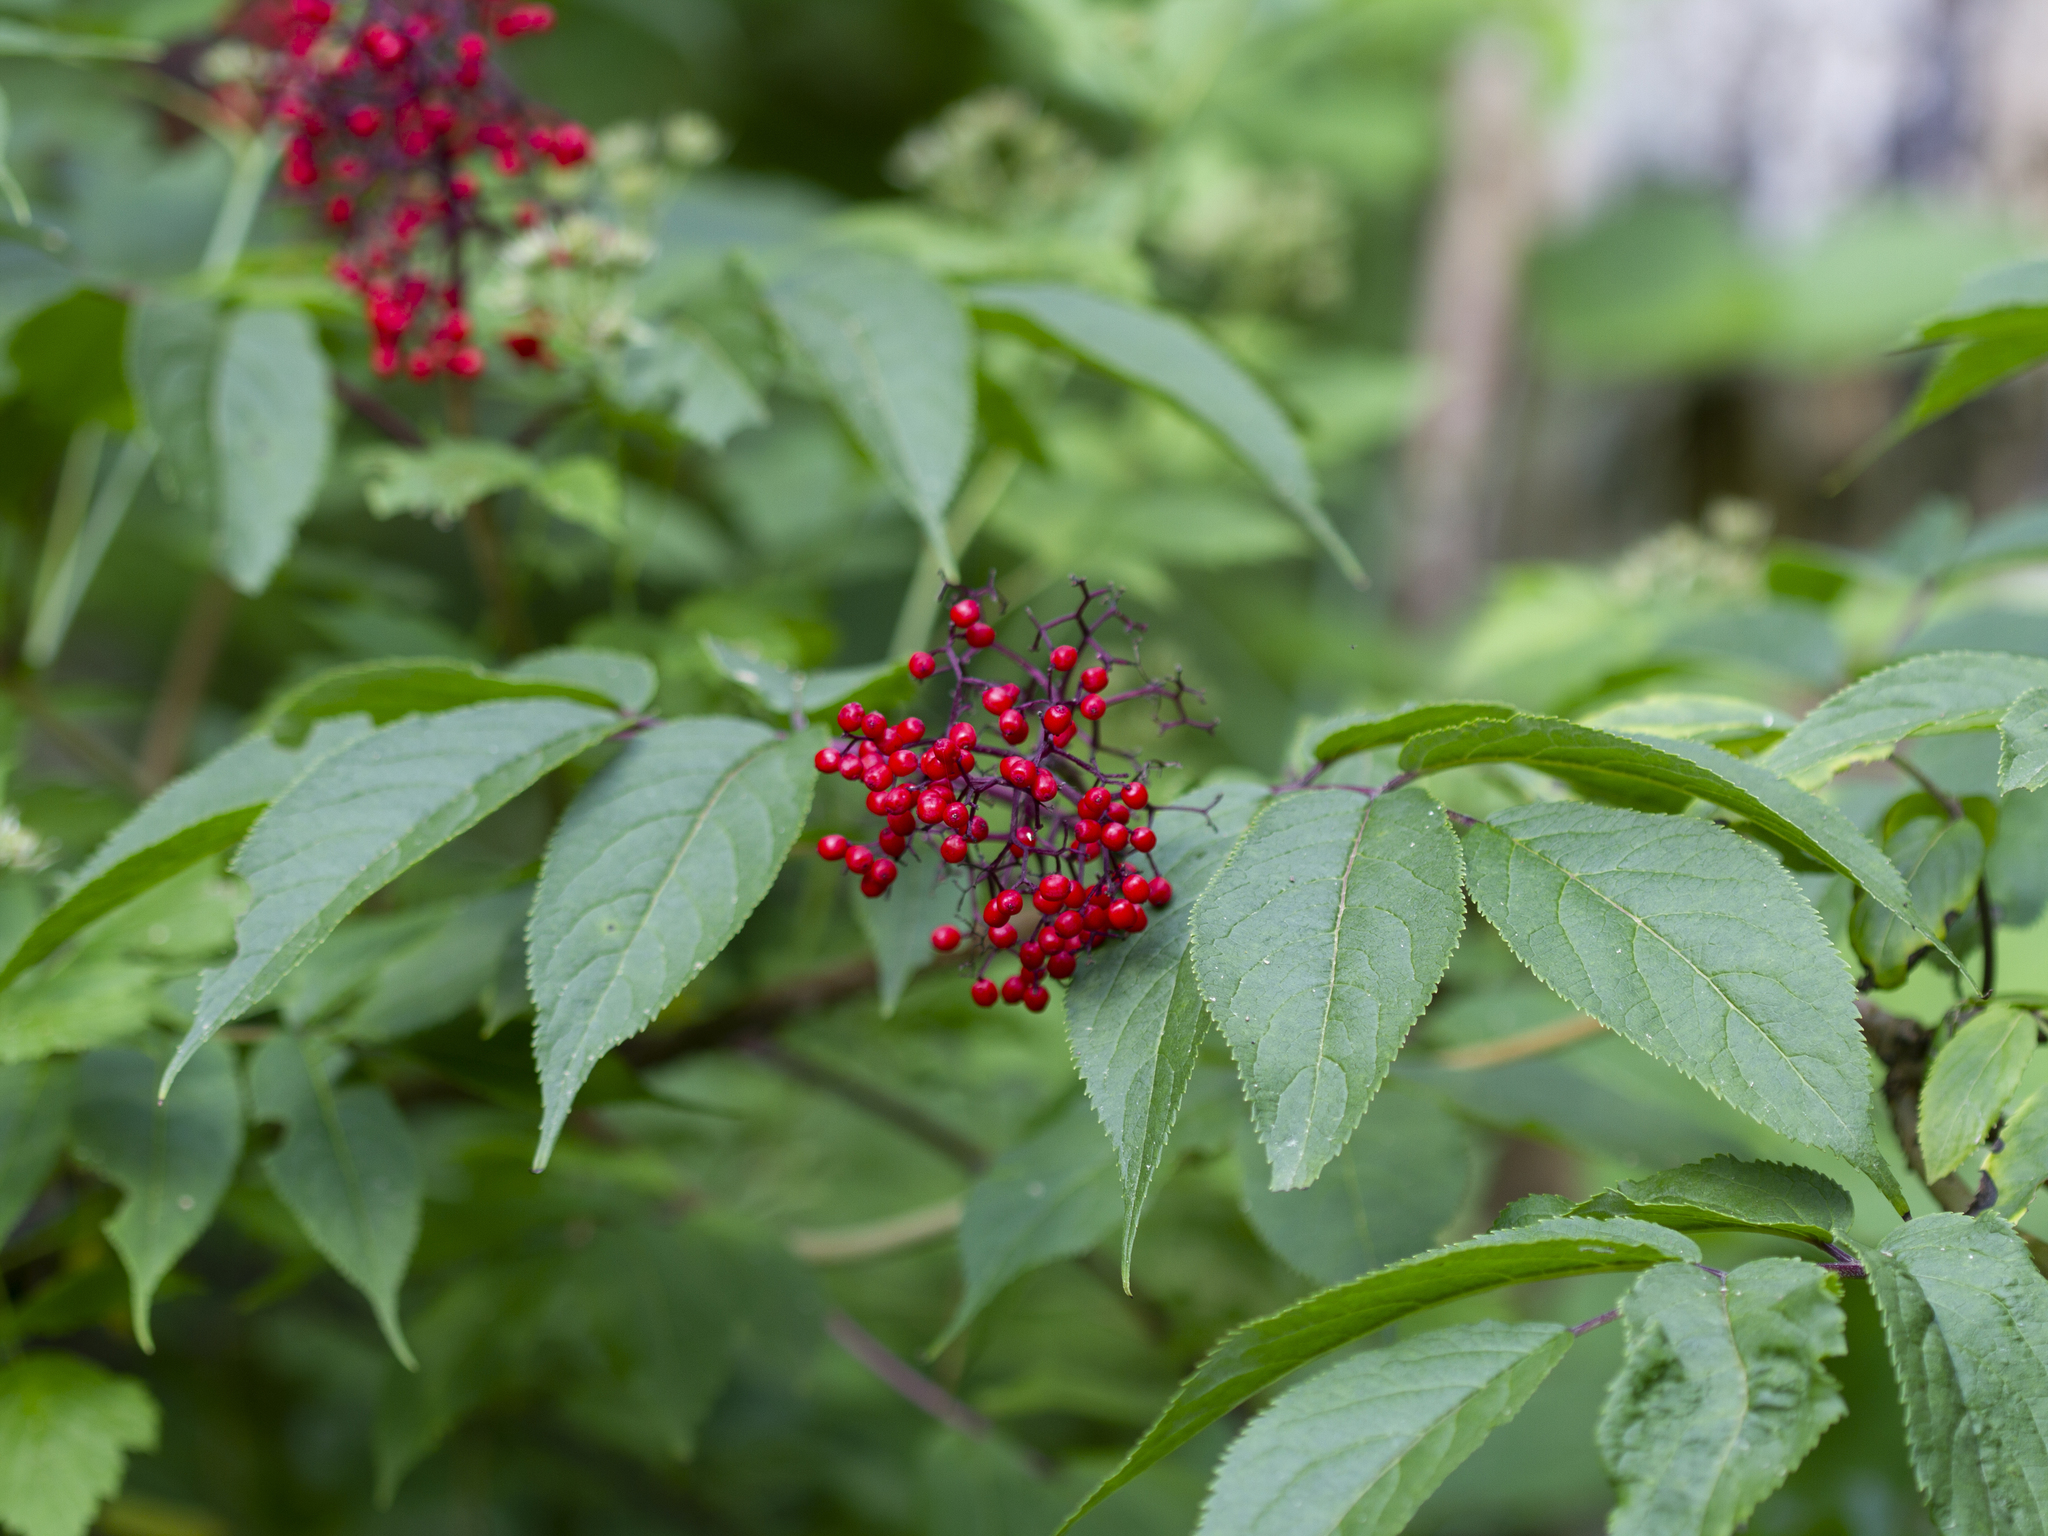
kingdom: Plantae
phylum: Tracheophyta
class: Magnoliopsida
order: Dipsacales
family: Viburnaceae
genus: Sambucus
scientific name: Sambucus racemosa
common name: Red-berried elder
